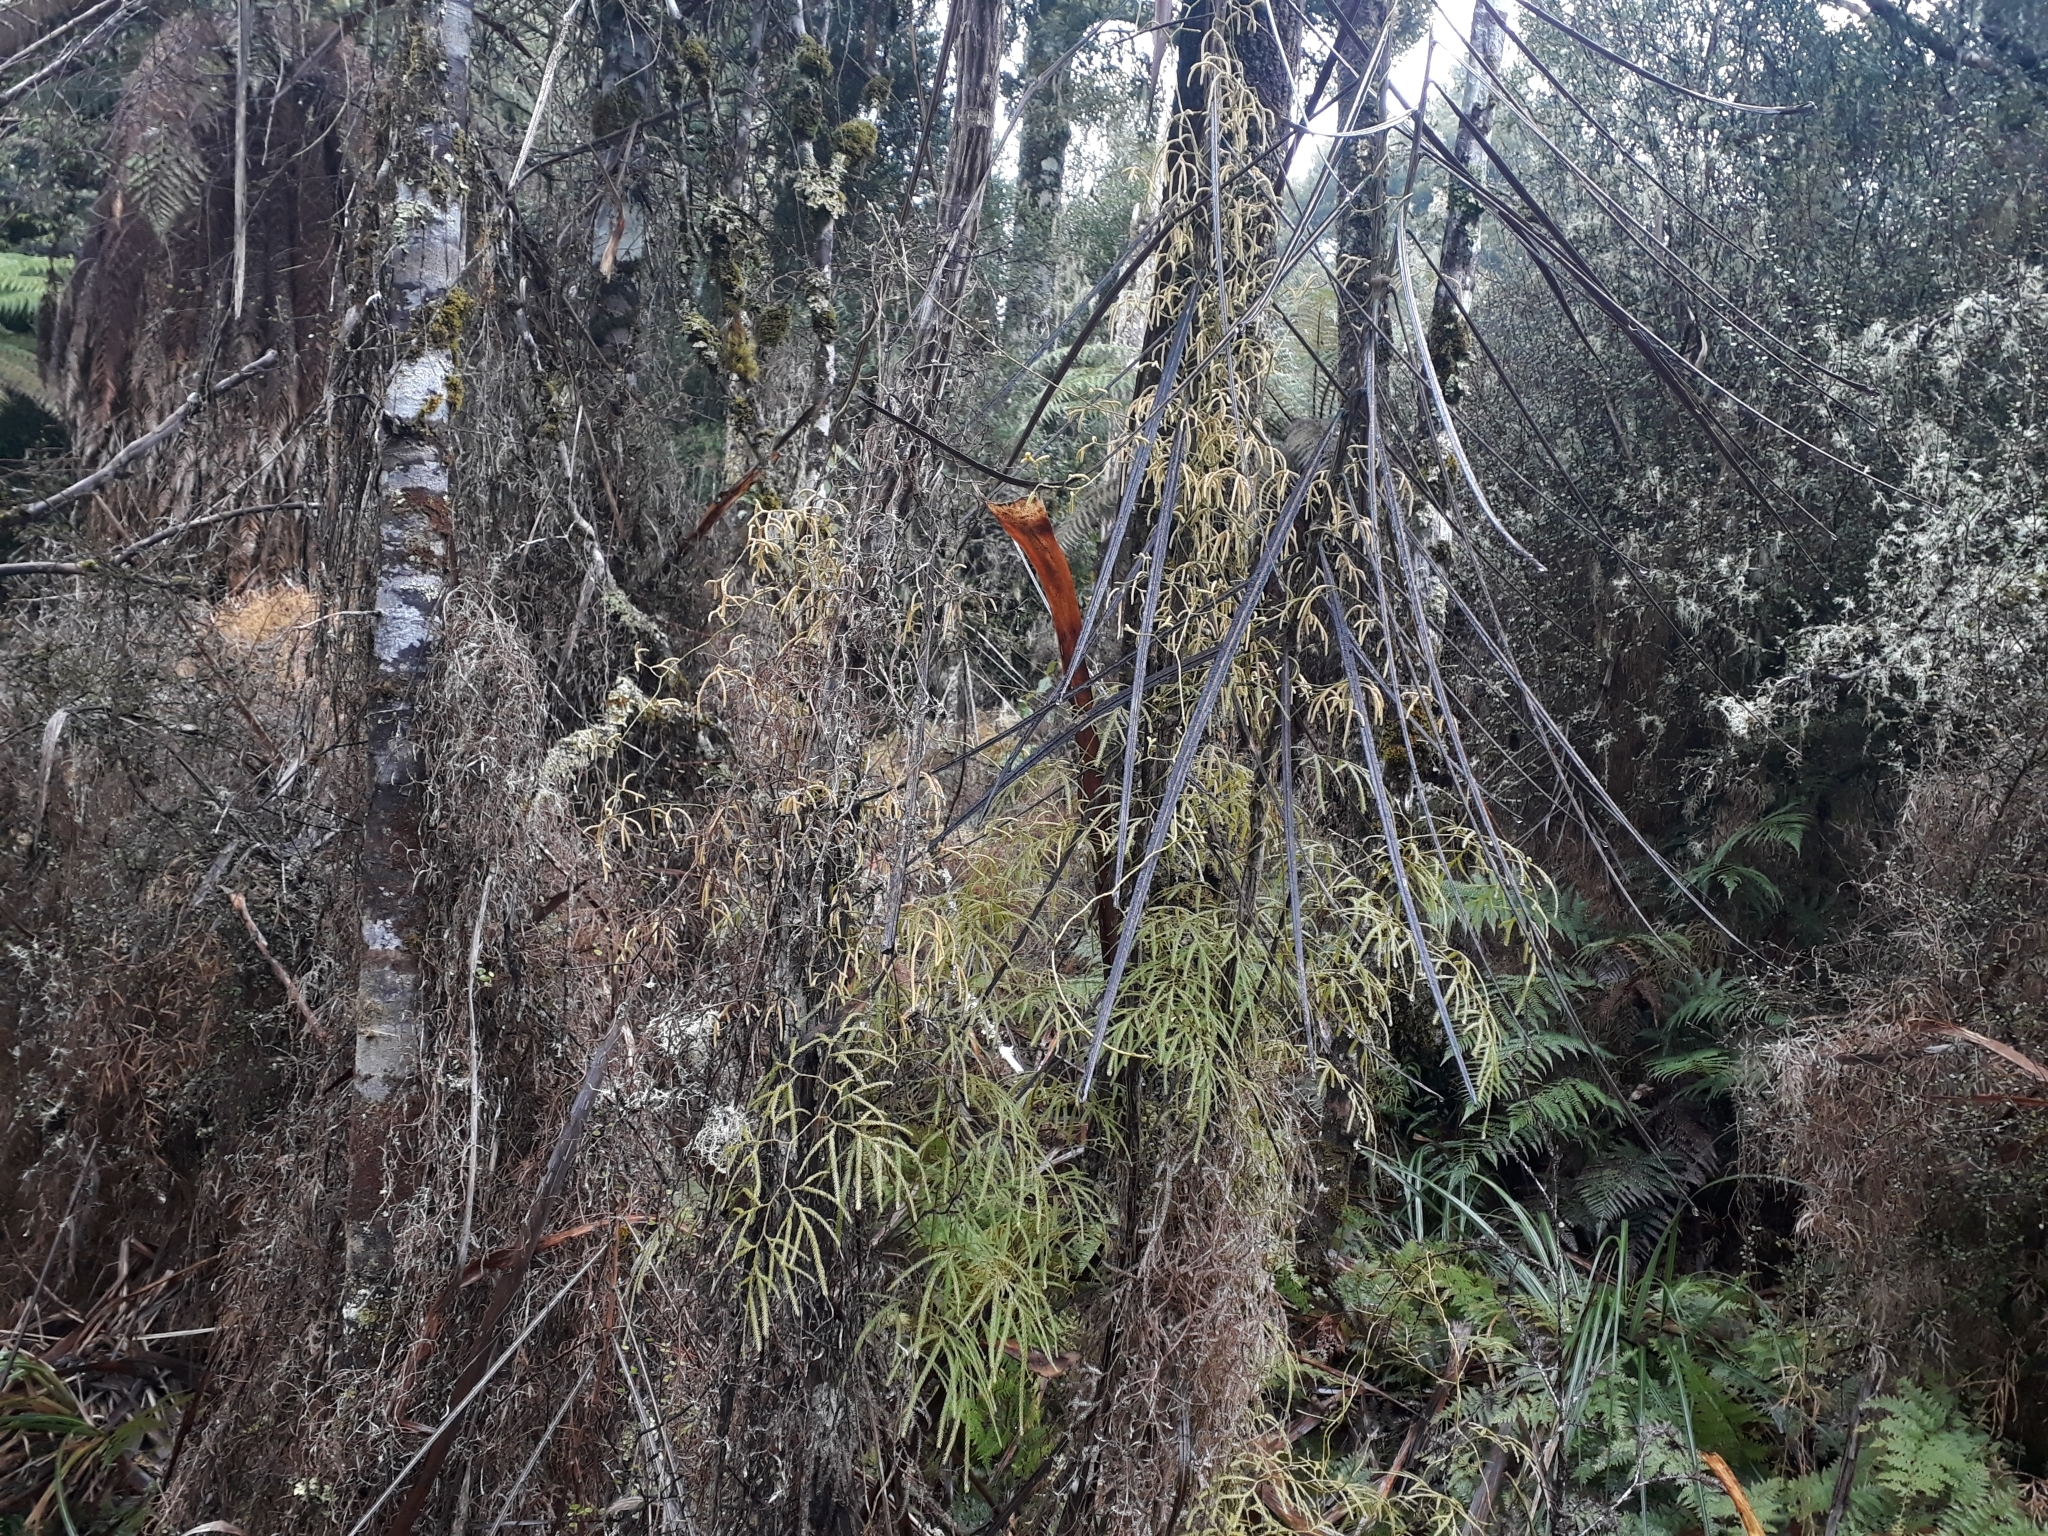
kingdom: Plantae
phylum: Tracheophyta
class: Lycopodiopsida
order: Lycopodiales
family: Lycopodiaceae
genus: Lycopodium
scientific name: Lycopodium volubile
